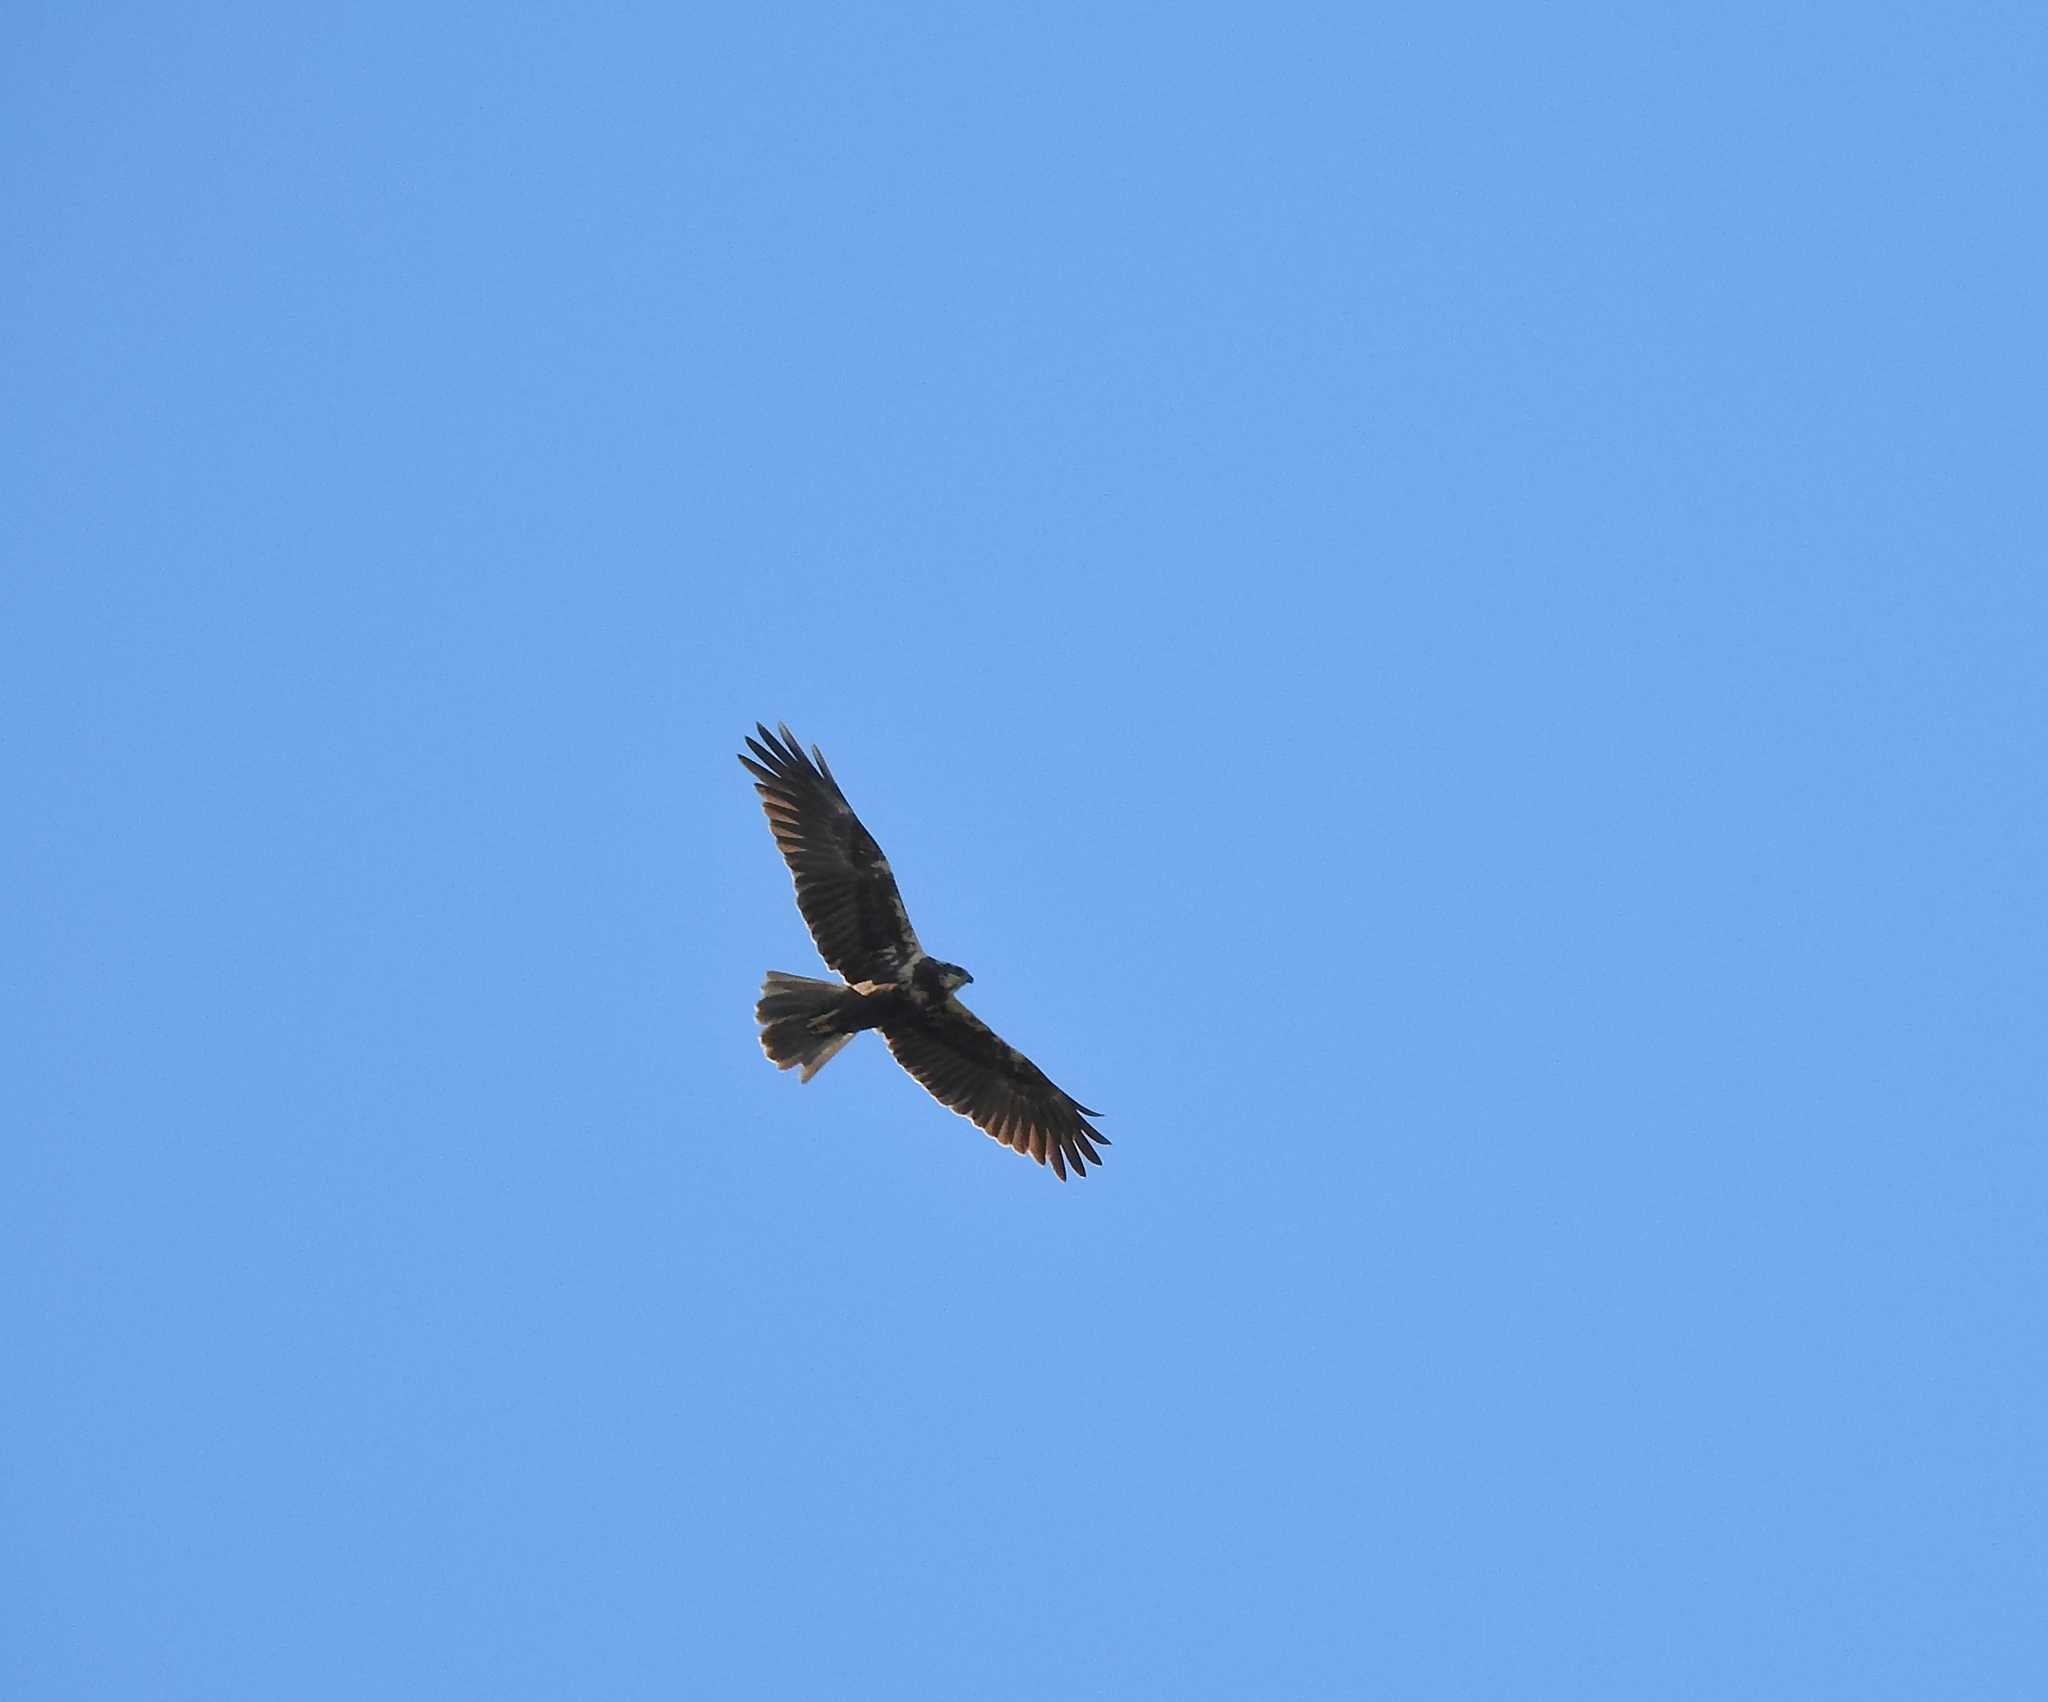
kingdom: Animalia
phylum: Chordata
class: Aves
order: Accipitriformes
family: Accipitridae
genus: Circus
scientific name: Circus aeruginosus
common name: Western marsh harrier
